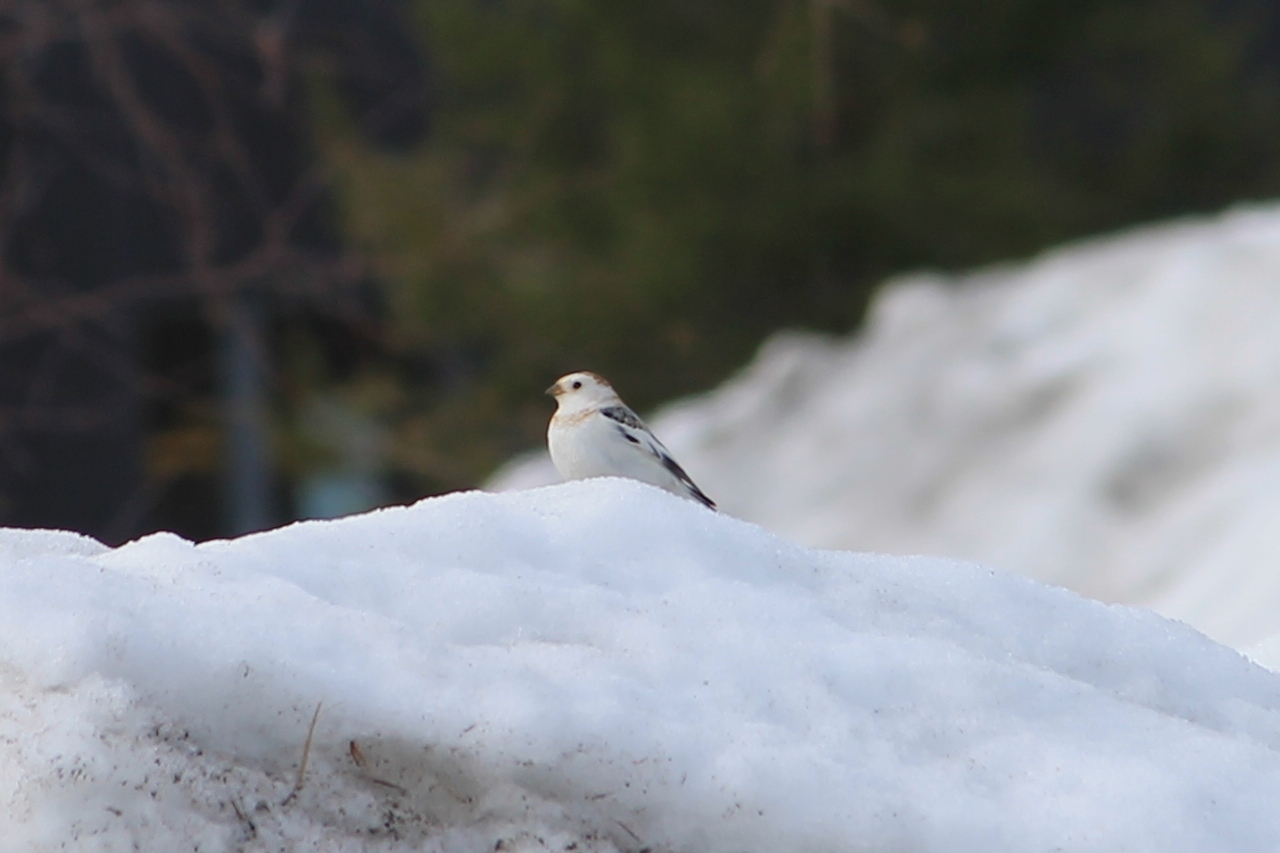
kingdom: Animalia
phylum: Chordata
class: Aves
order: Passeriformes
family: Calcariidae
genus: Plectrophenax
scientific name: Plectrophenax nivalis
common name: Snow bunting
